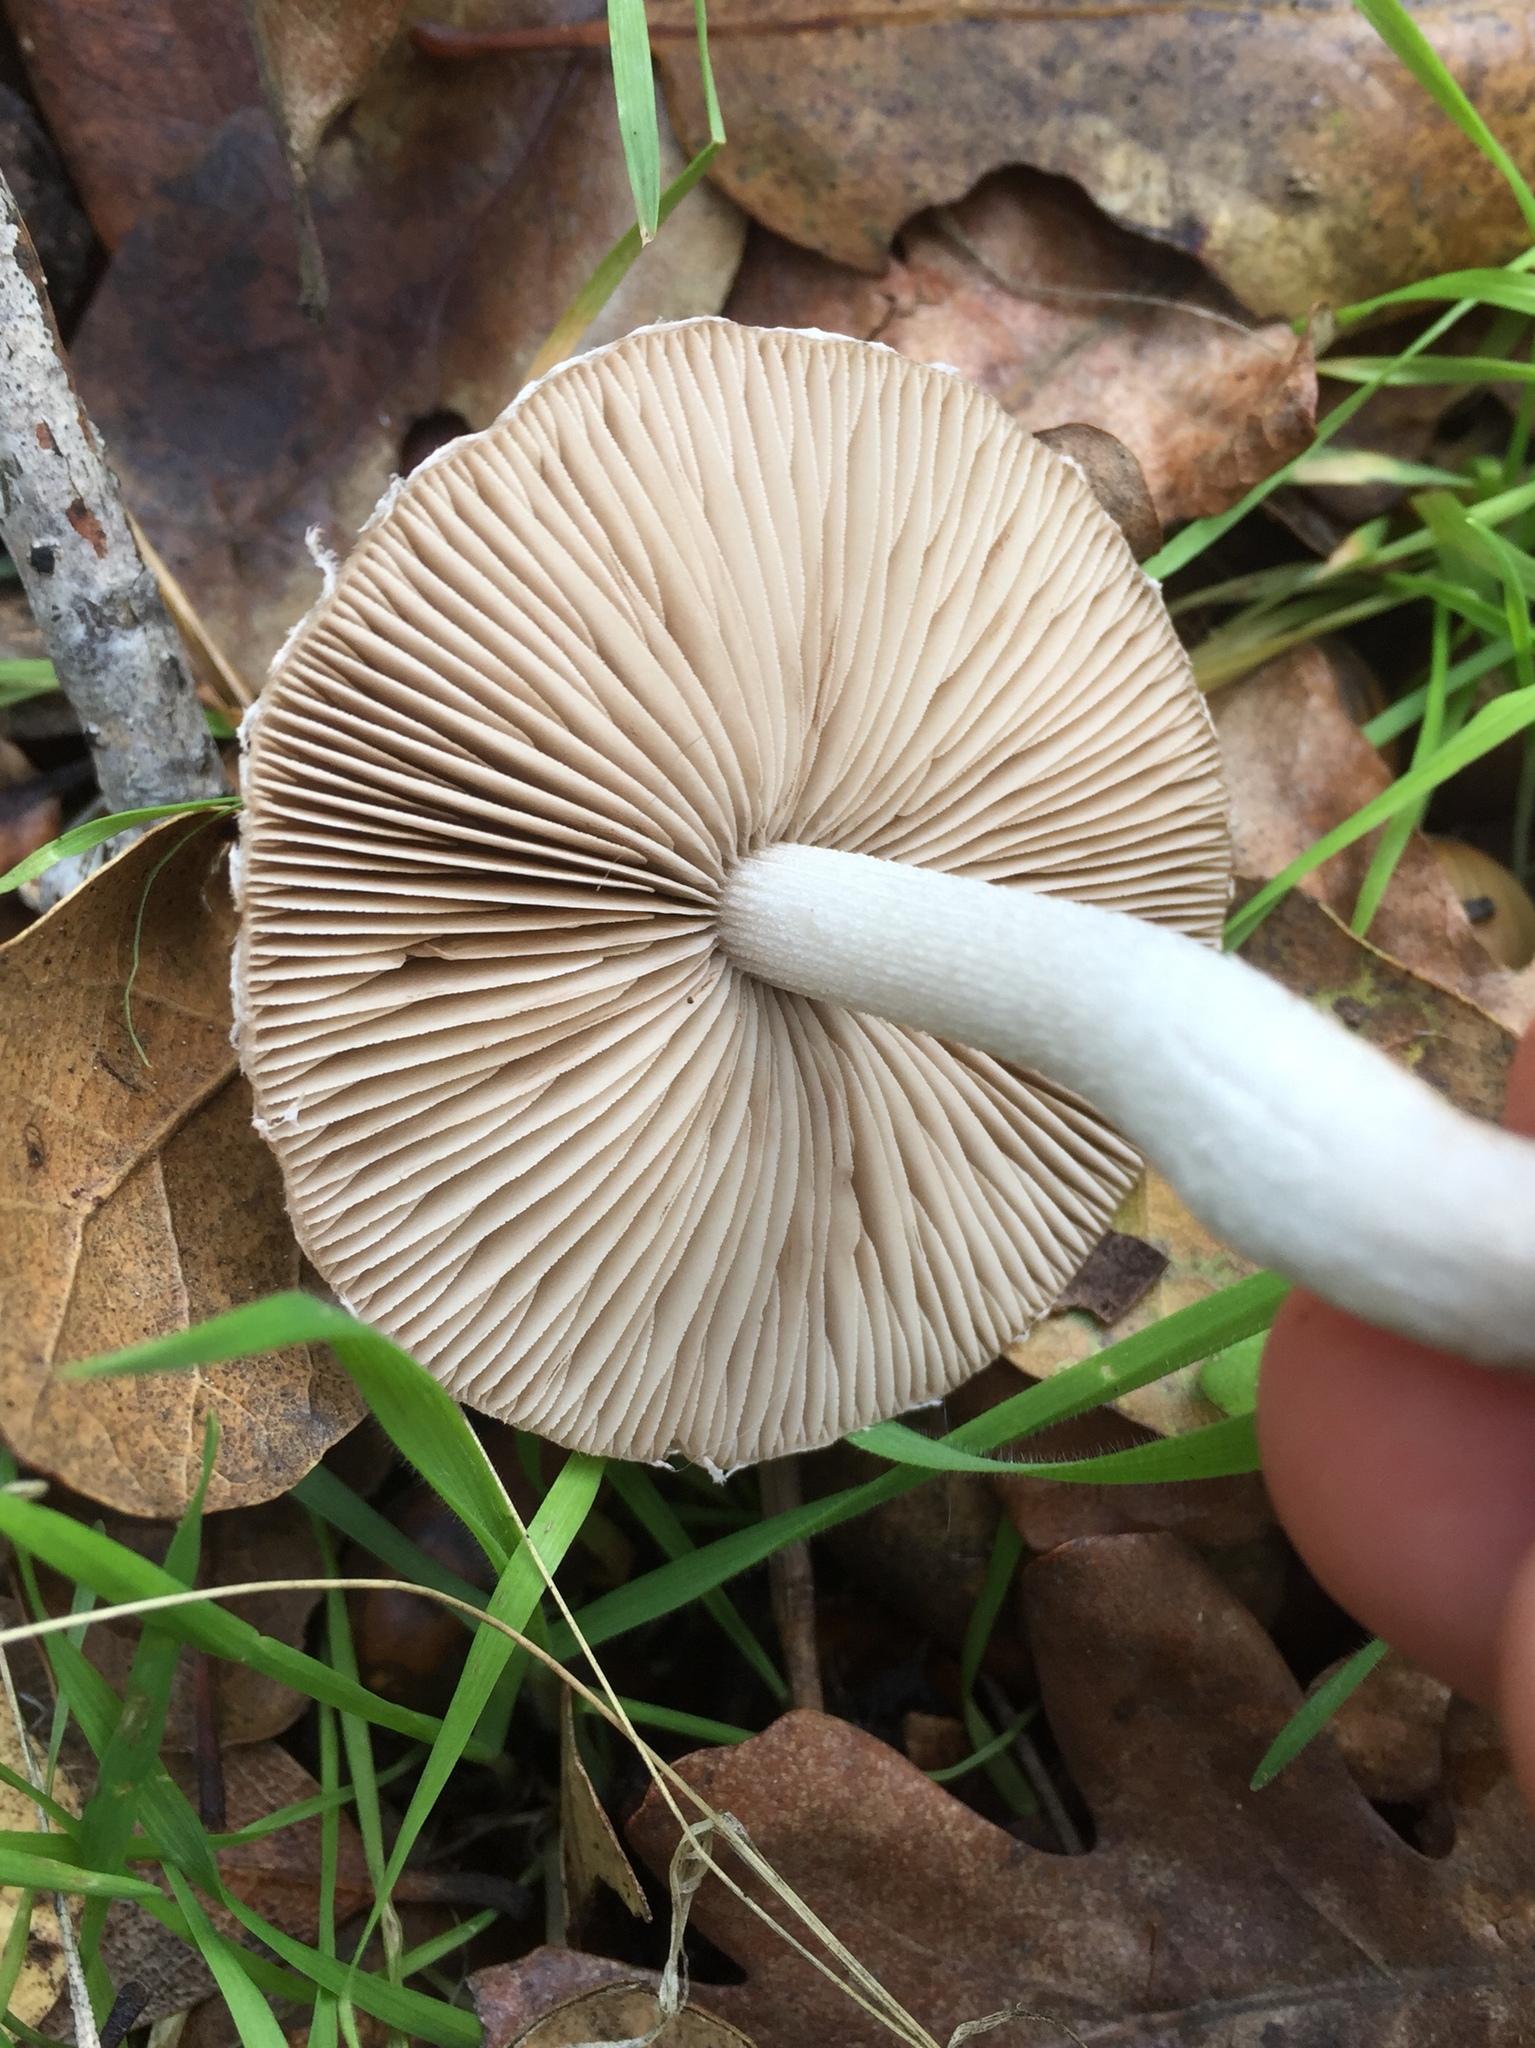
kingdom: Fungi
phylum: Basidiomycota
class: Agaricomycetes
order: Agaricales
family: Psathyrellaceae
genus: Psathyrella
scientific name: Psathyrella uliginicola
